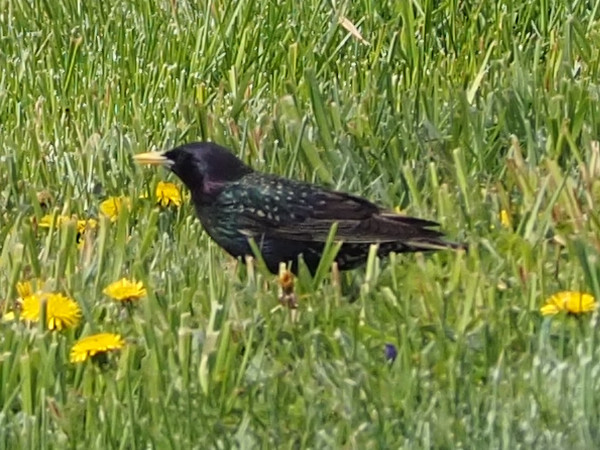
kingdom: Animalia
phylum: Chordata
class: Aves
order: Passeriformes
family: Sturnidae
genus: Sturnus
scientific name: Sturnus vulgaris
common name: Common starling
